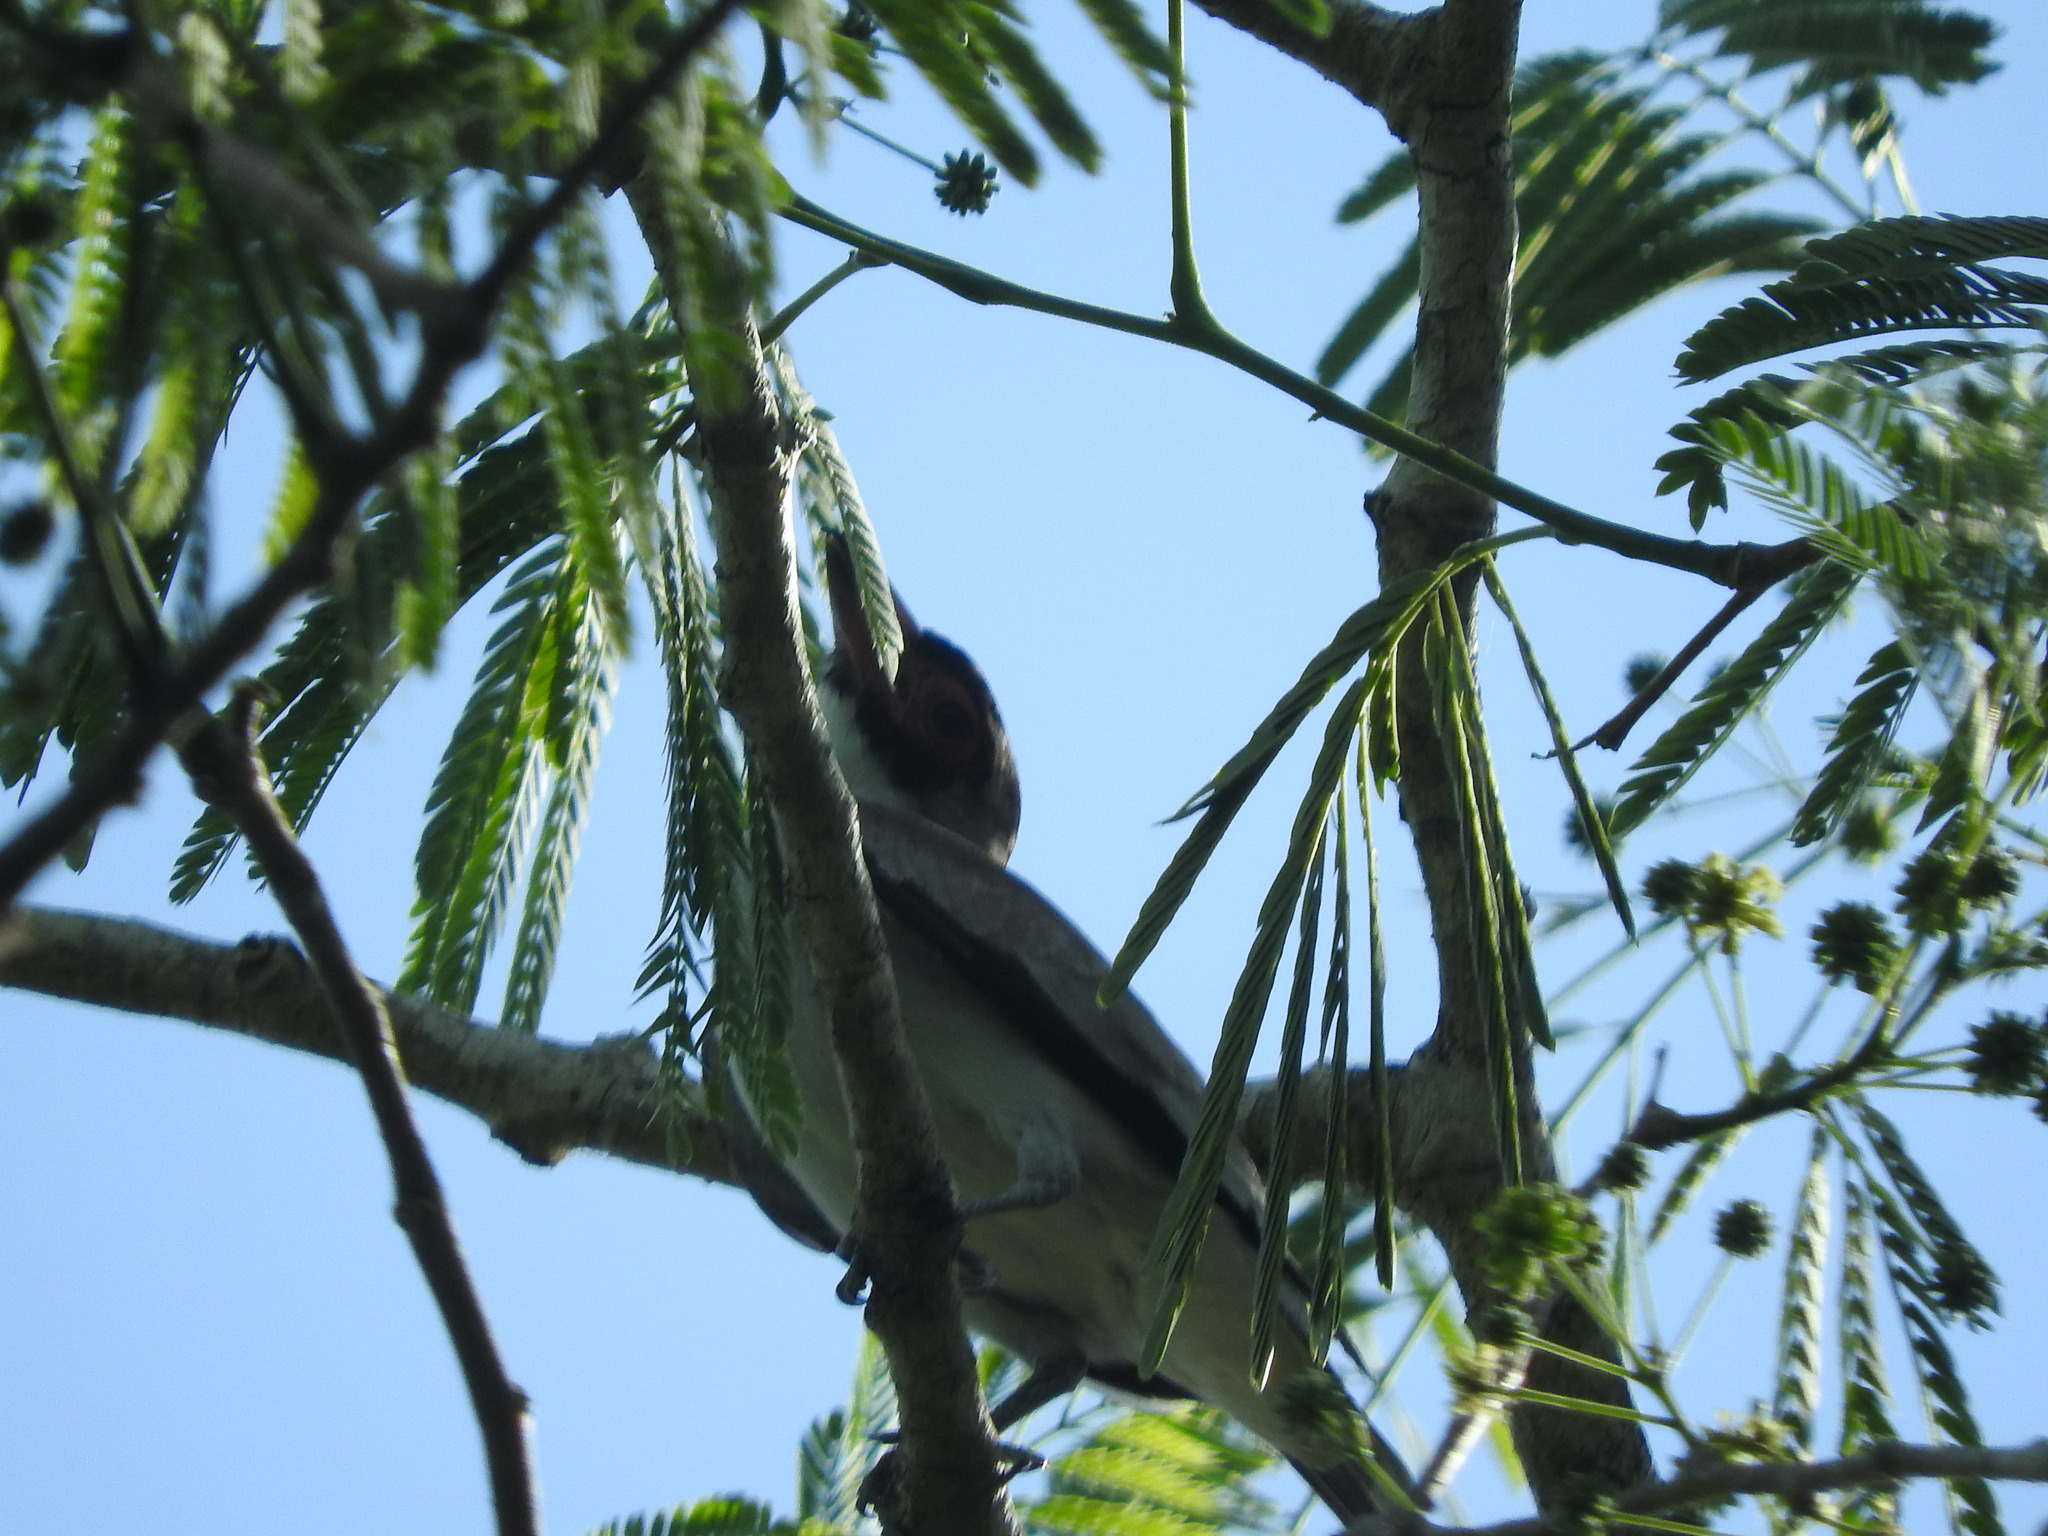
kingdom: Animalia
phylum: Chordata
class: Aves
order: Passeriformes
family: Cotingidae
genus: Tityra
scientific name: Tityra semifasciata
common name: Masked tityra
